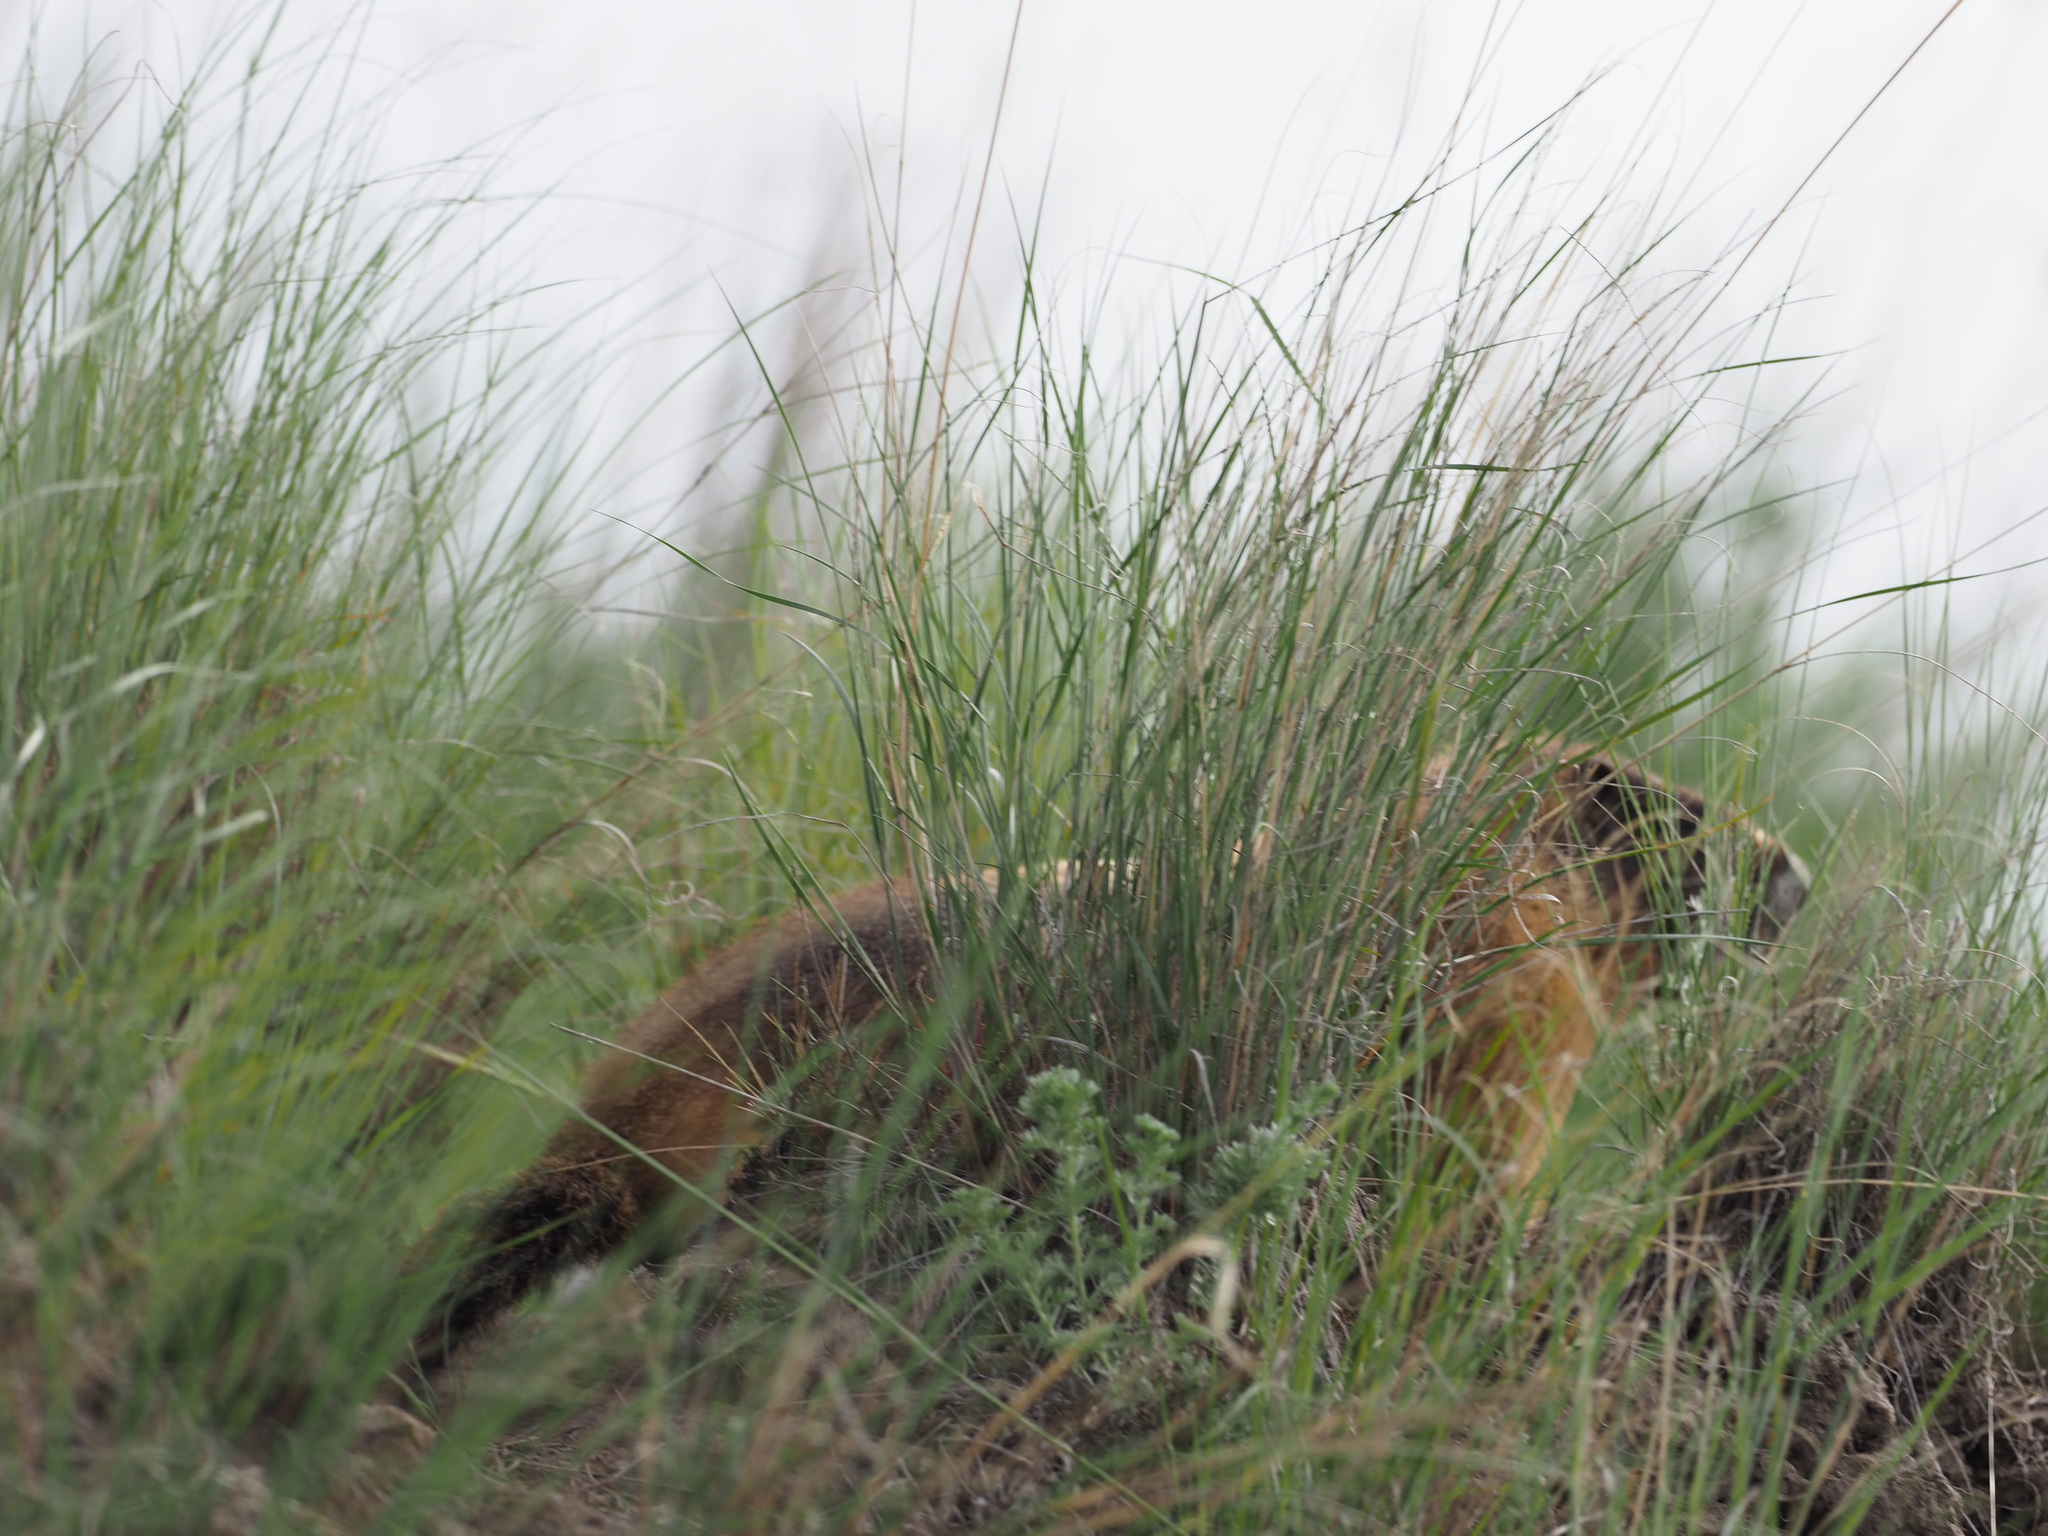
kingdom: Animalia
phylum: Chordata
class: Mammalia
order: Rodentia
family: Sciuridae
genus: Marmota
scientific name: Marmota flaviventris
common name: Yellow-bellied marmot
